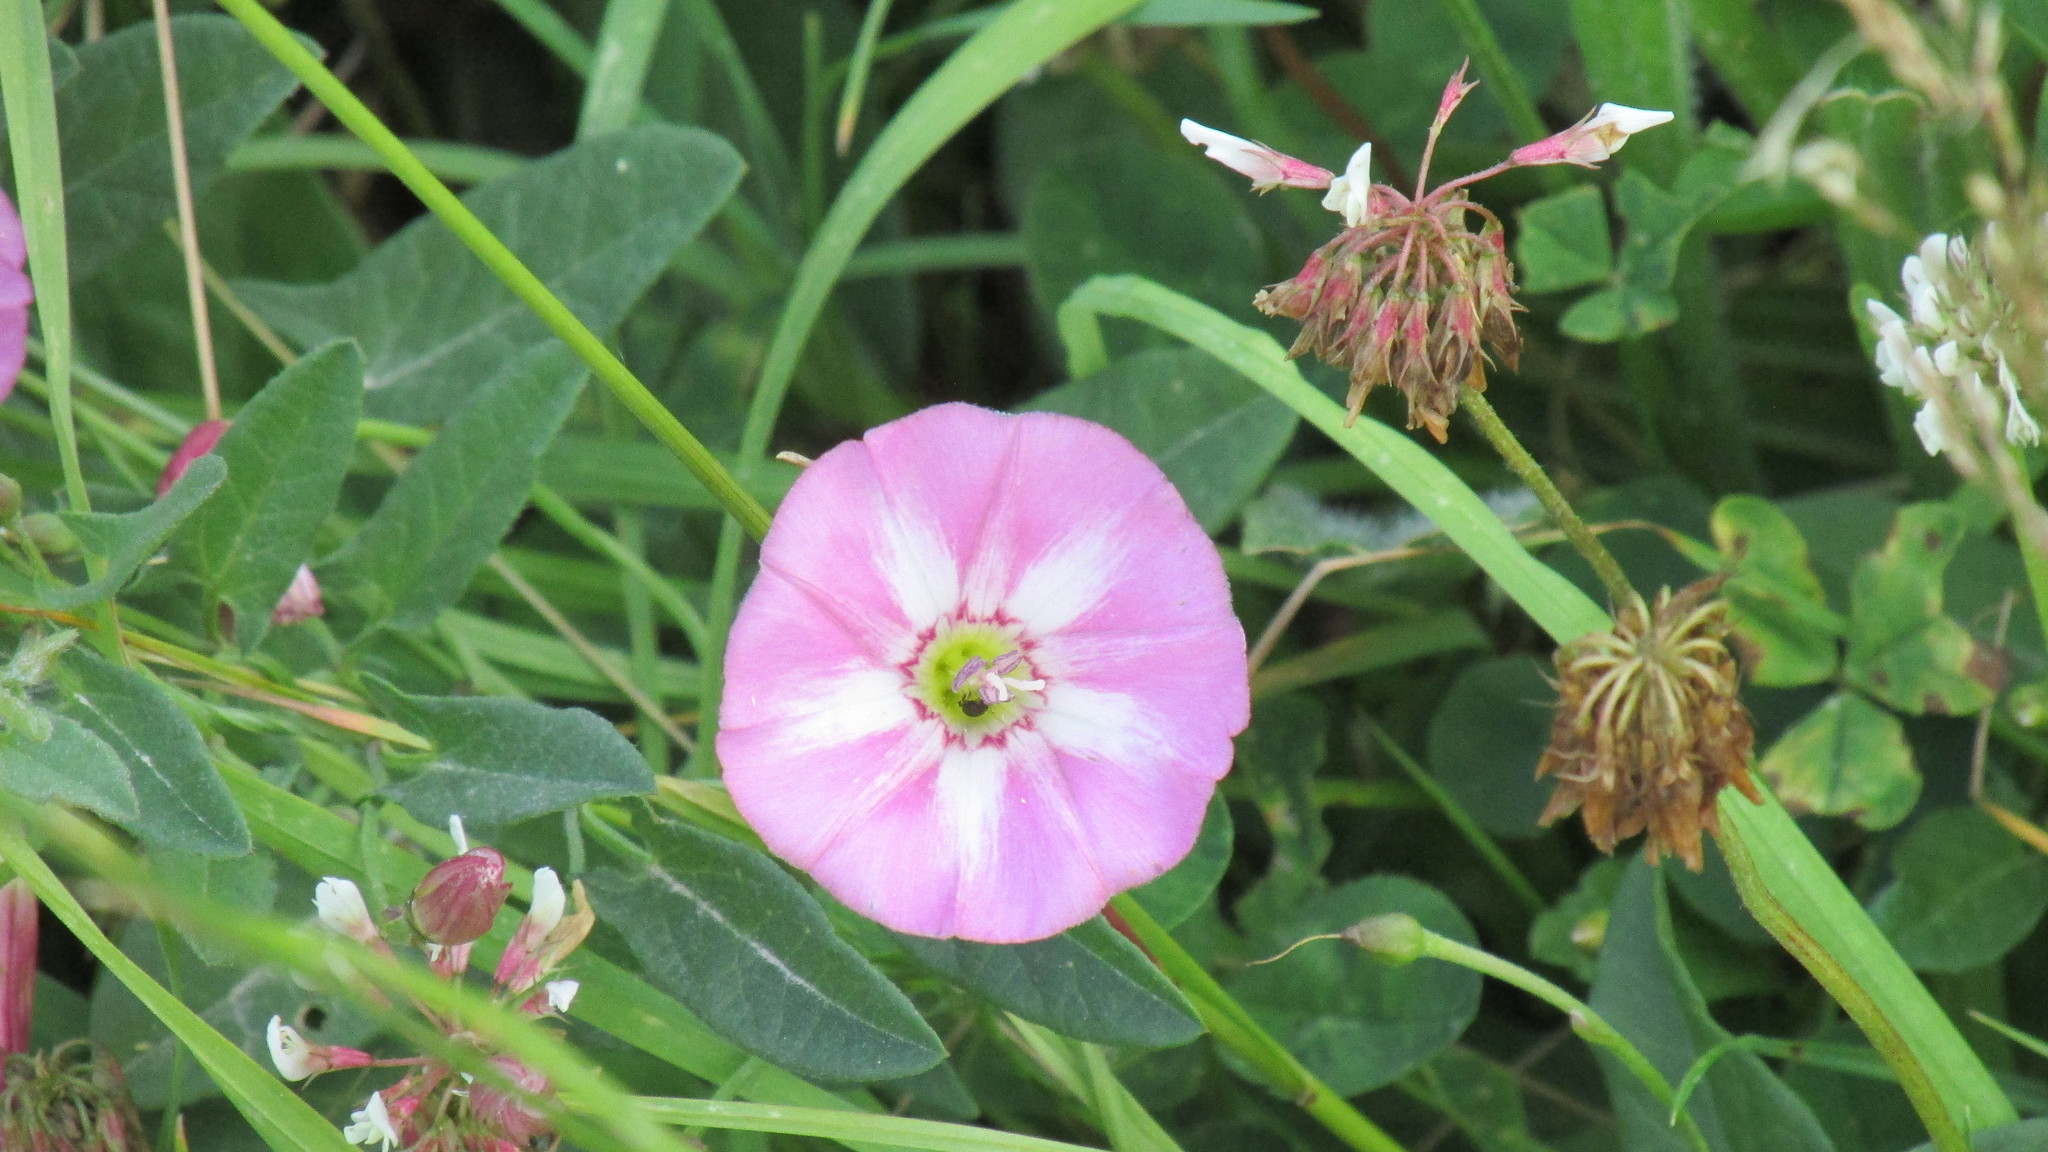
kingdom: Plantae
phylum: Tracheophyta
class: Magnoliopsida
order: Solanales
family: Convolvulaceae
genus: Convolvulus
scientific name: Convolvulus arvensis
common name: Field bindweed
